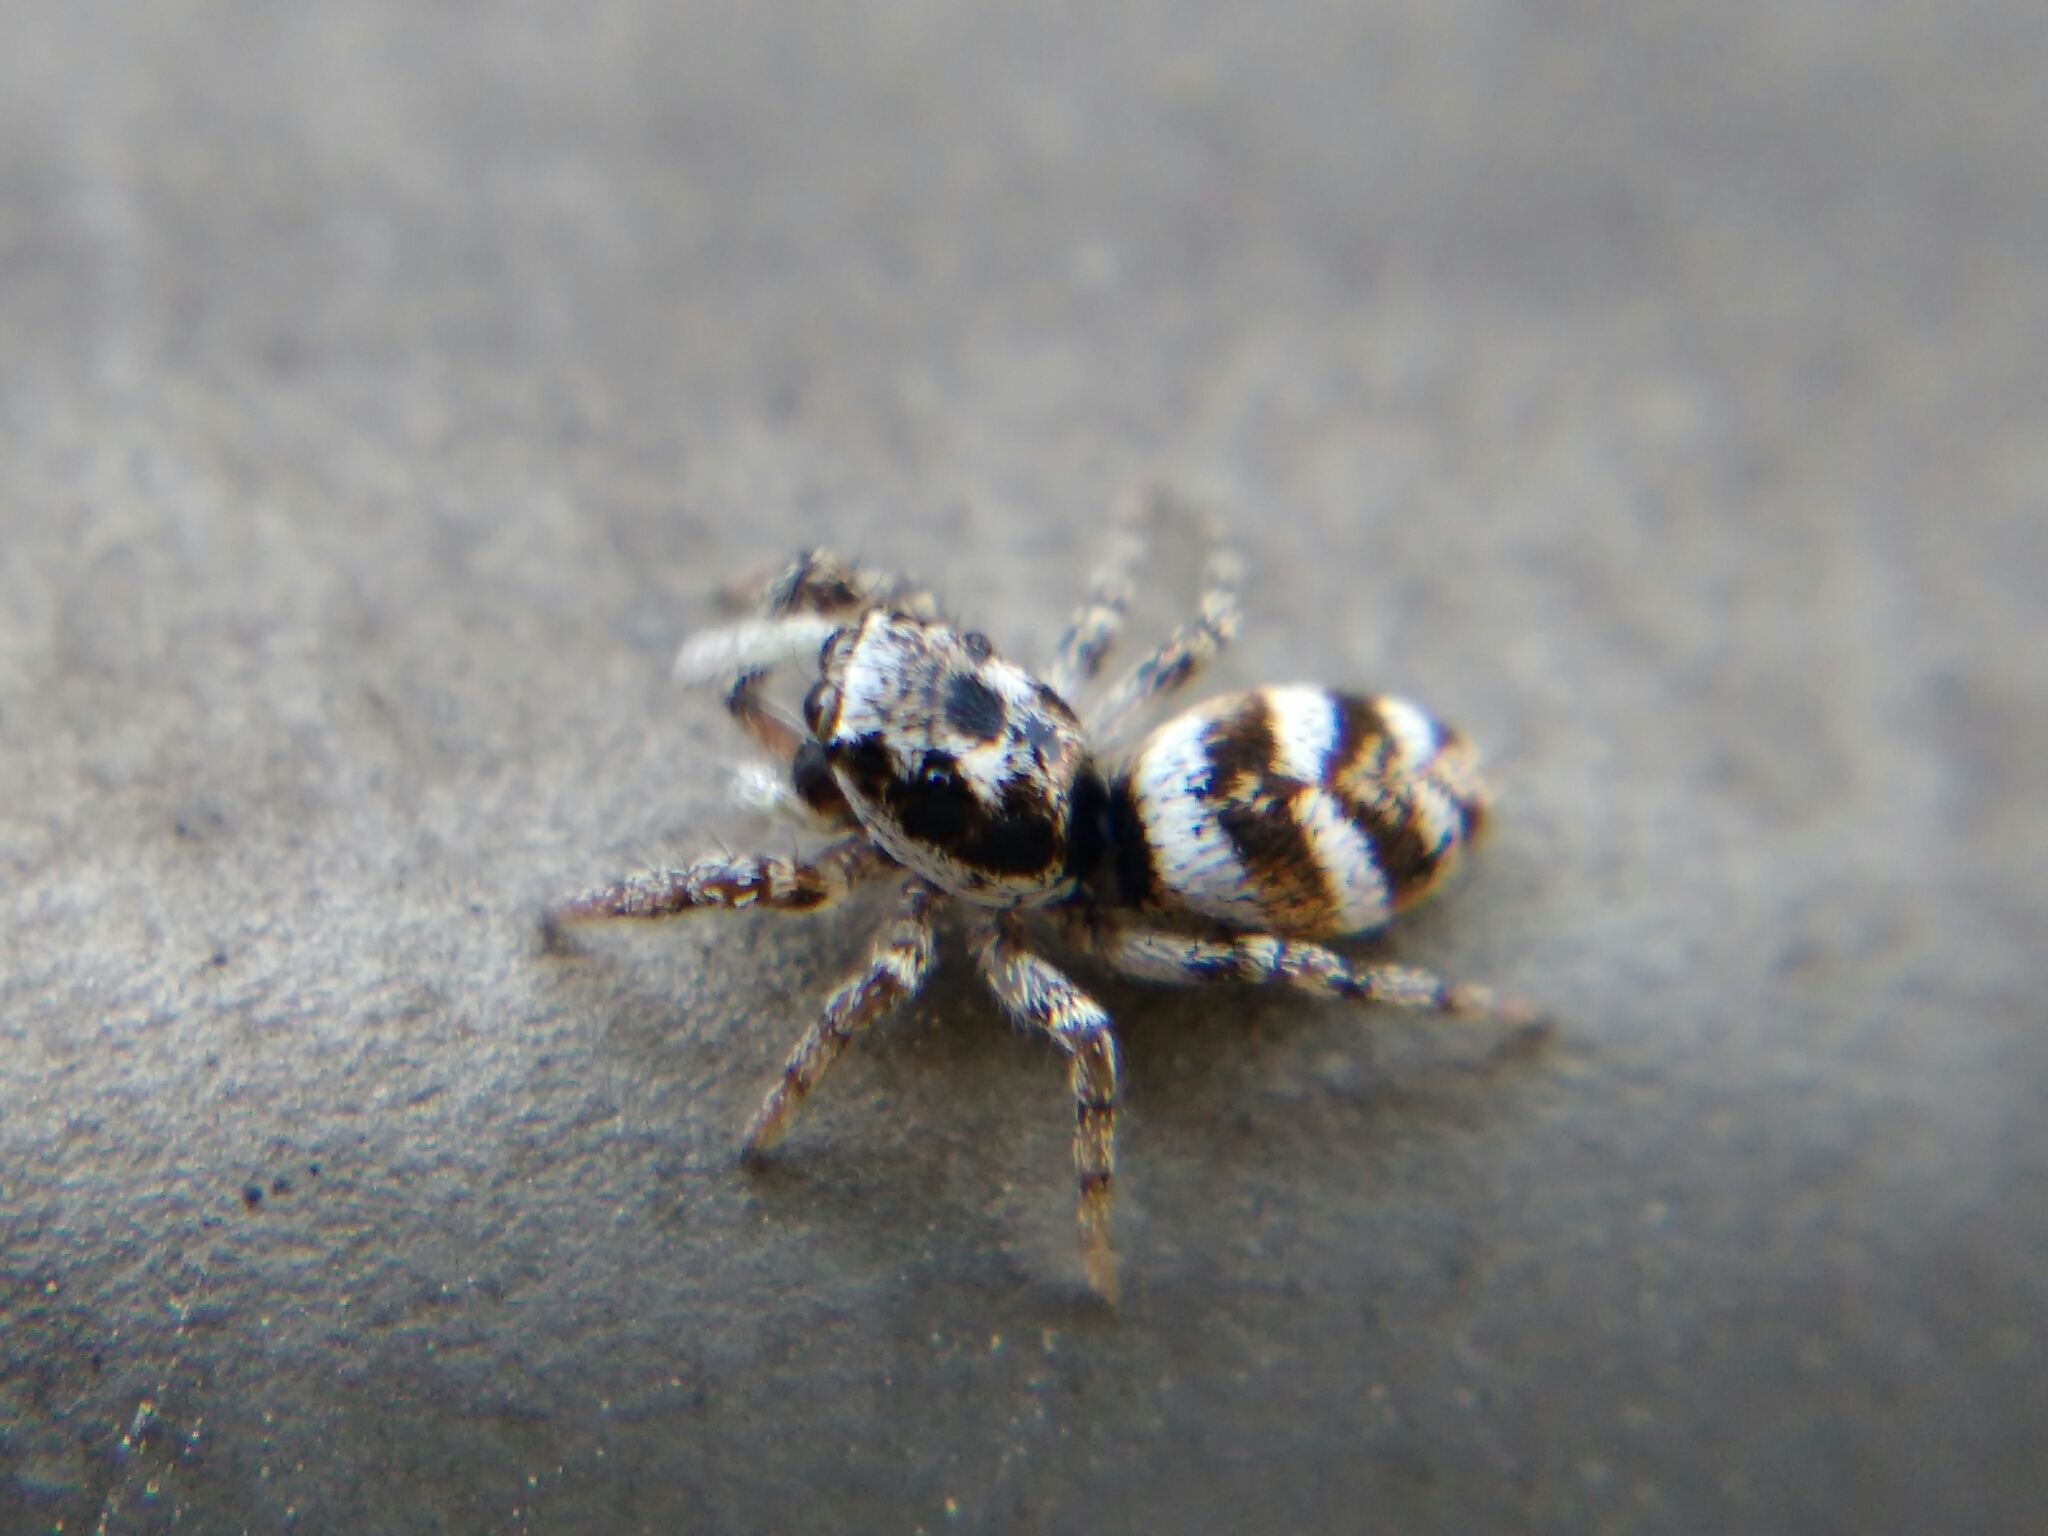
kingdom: Animalia
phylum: Arthropoda
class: Arachnida
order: Araneae
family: Salticidae
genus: Salticus
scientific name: Salticus scenicus
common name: Zebra jumper
